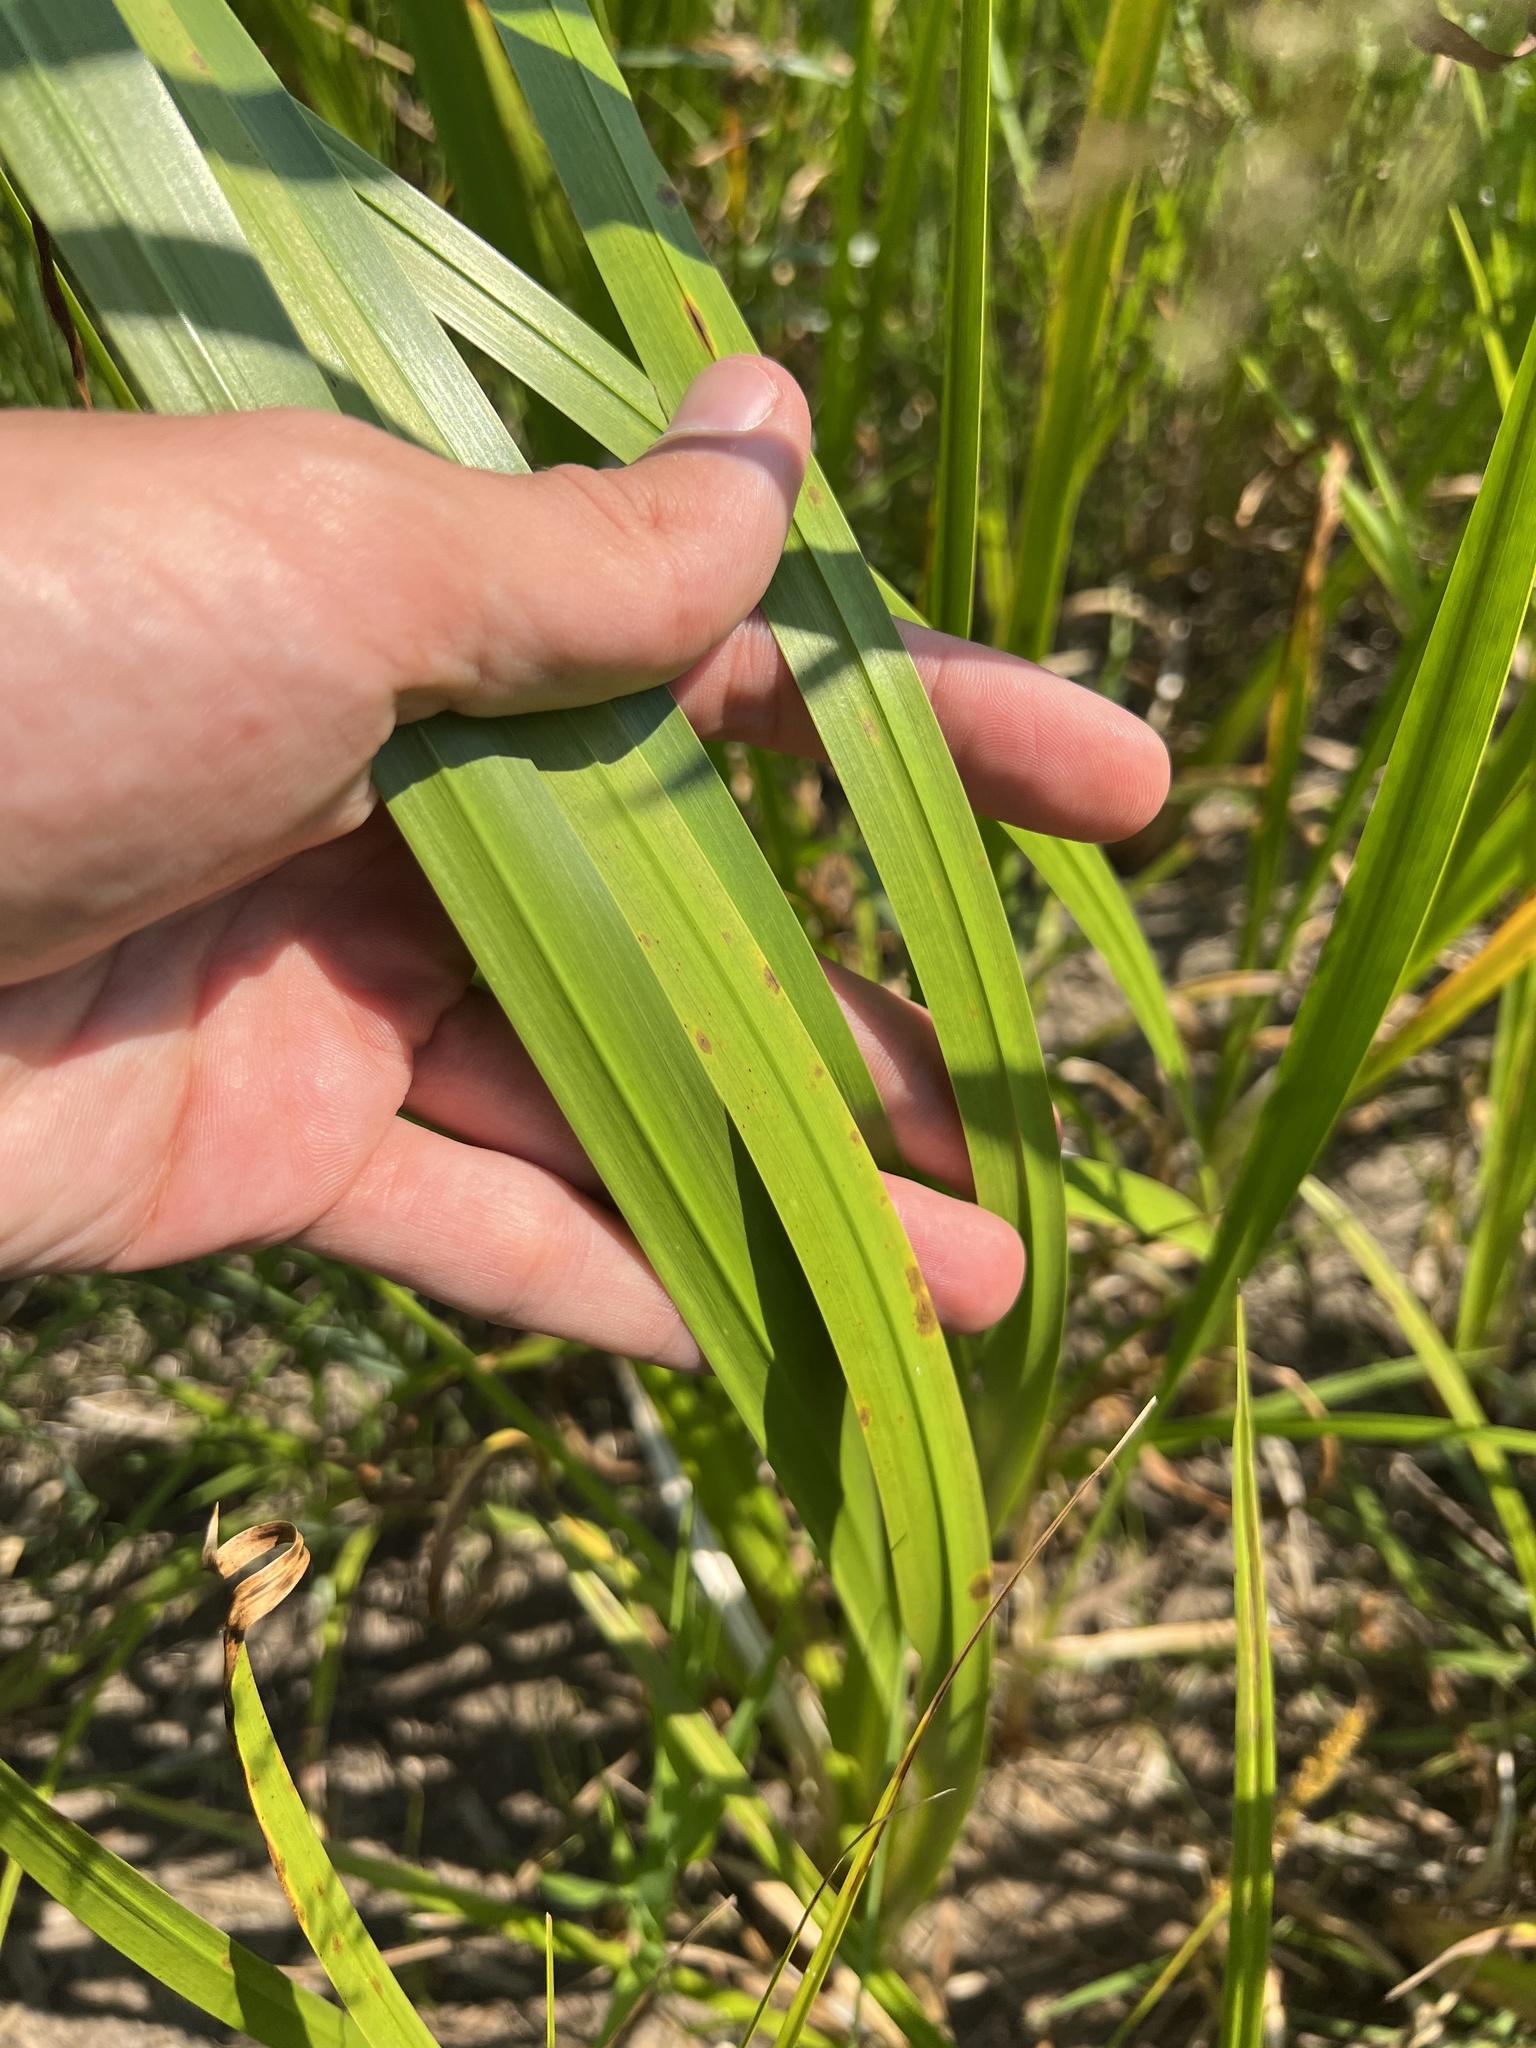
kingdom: Plantae
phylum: Tracheophyta
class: Liliopsida
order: Acorales
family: Acoraceae
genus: Acorus
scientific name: Acorus calamus
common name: Sweet-flag
